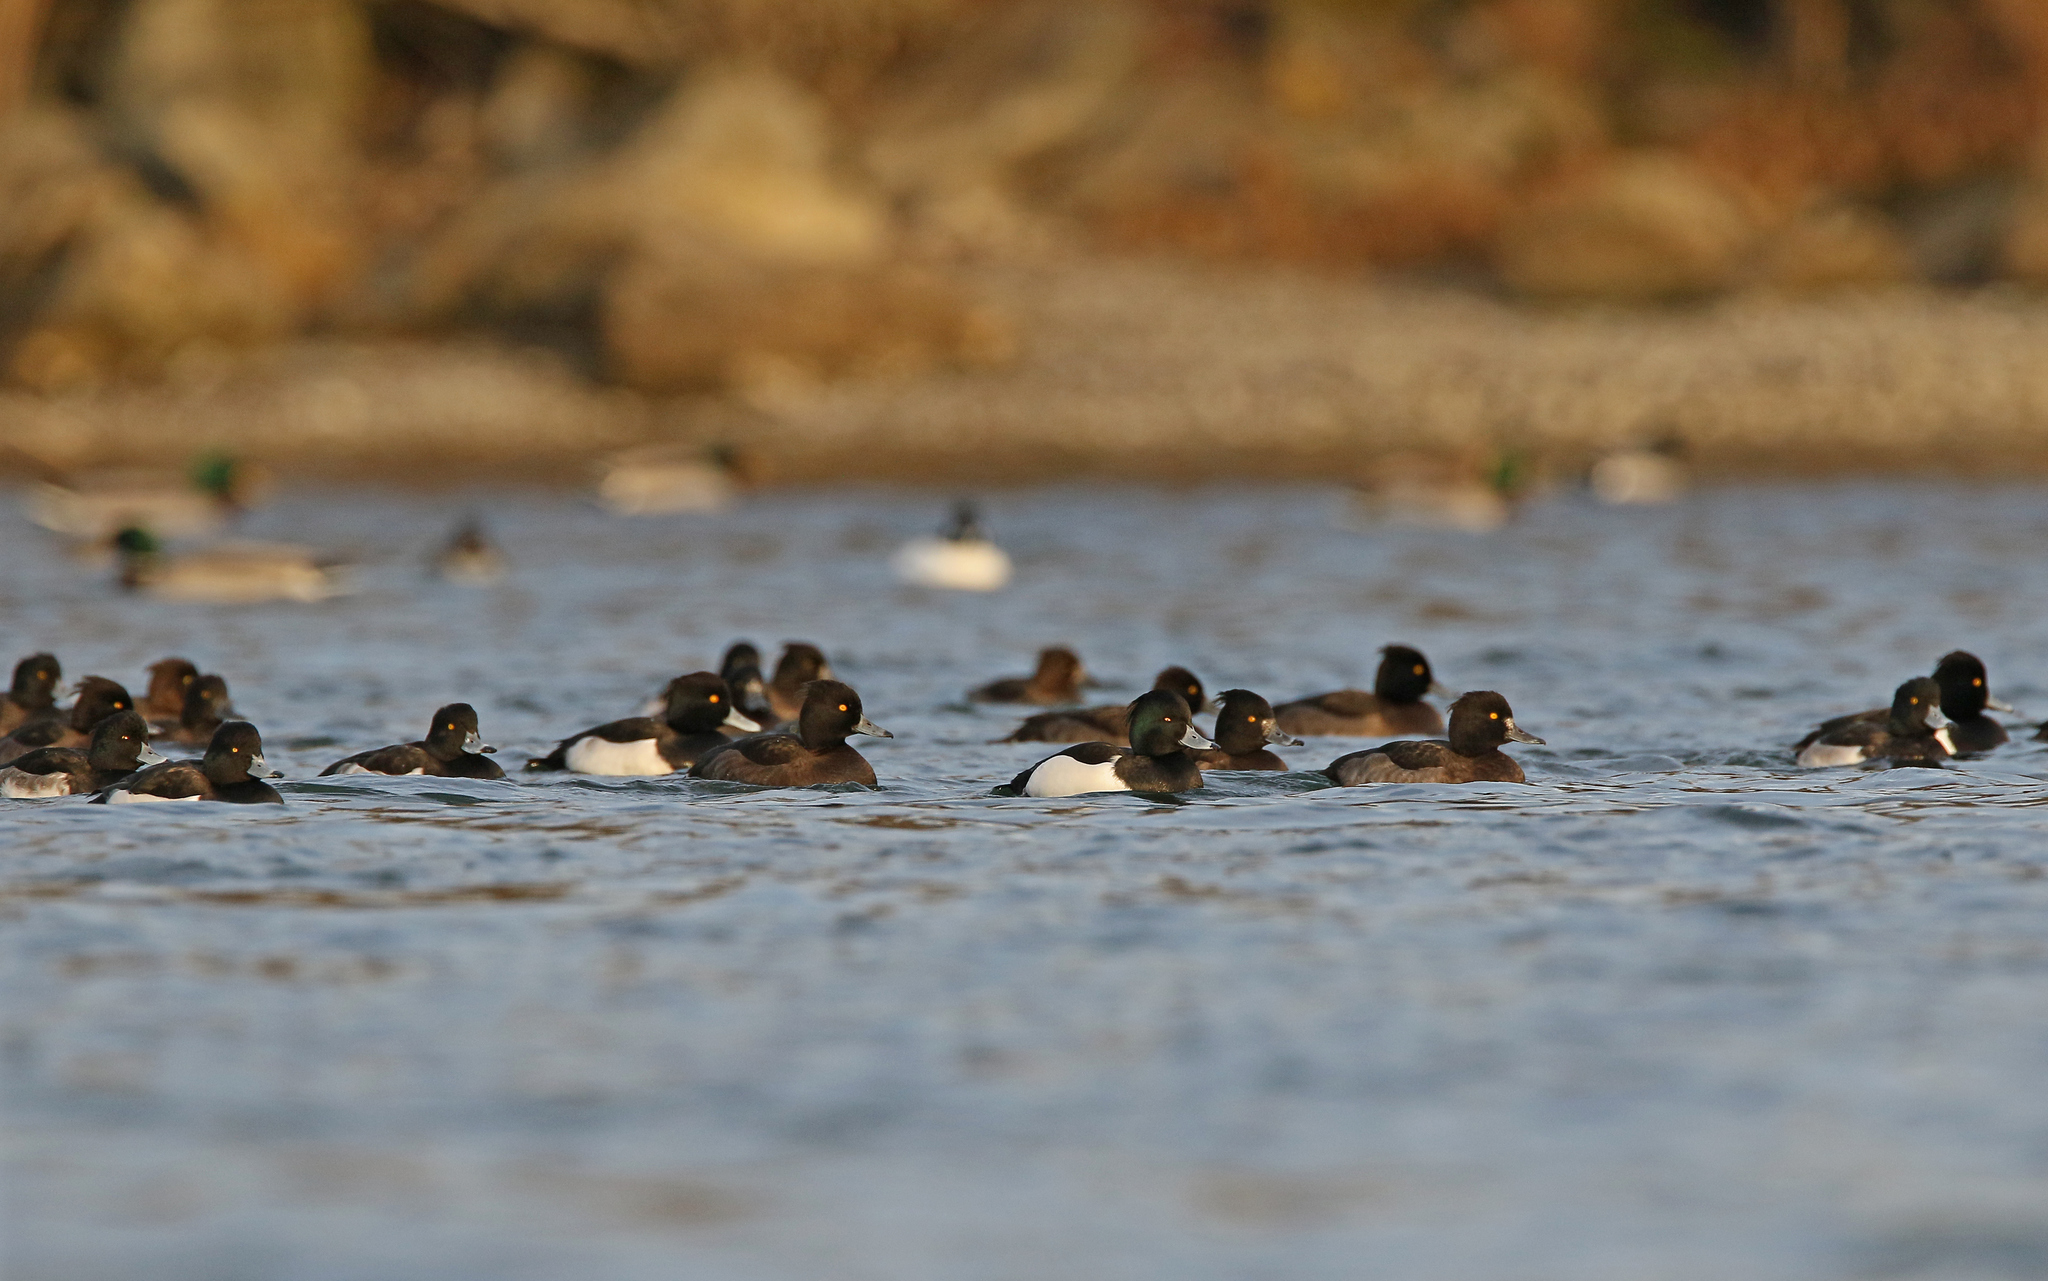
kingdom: Animalia
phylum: Chordata
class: Aves
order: Anseriformes
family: Anatidae
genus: Aythya
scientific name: Aythya fuligula
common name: Tufted duck
